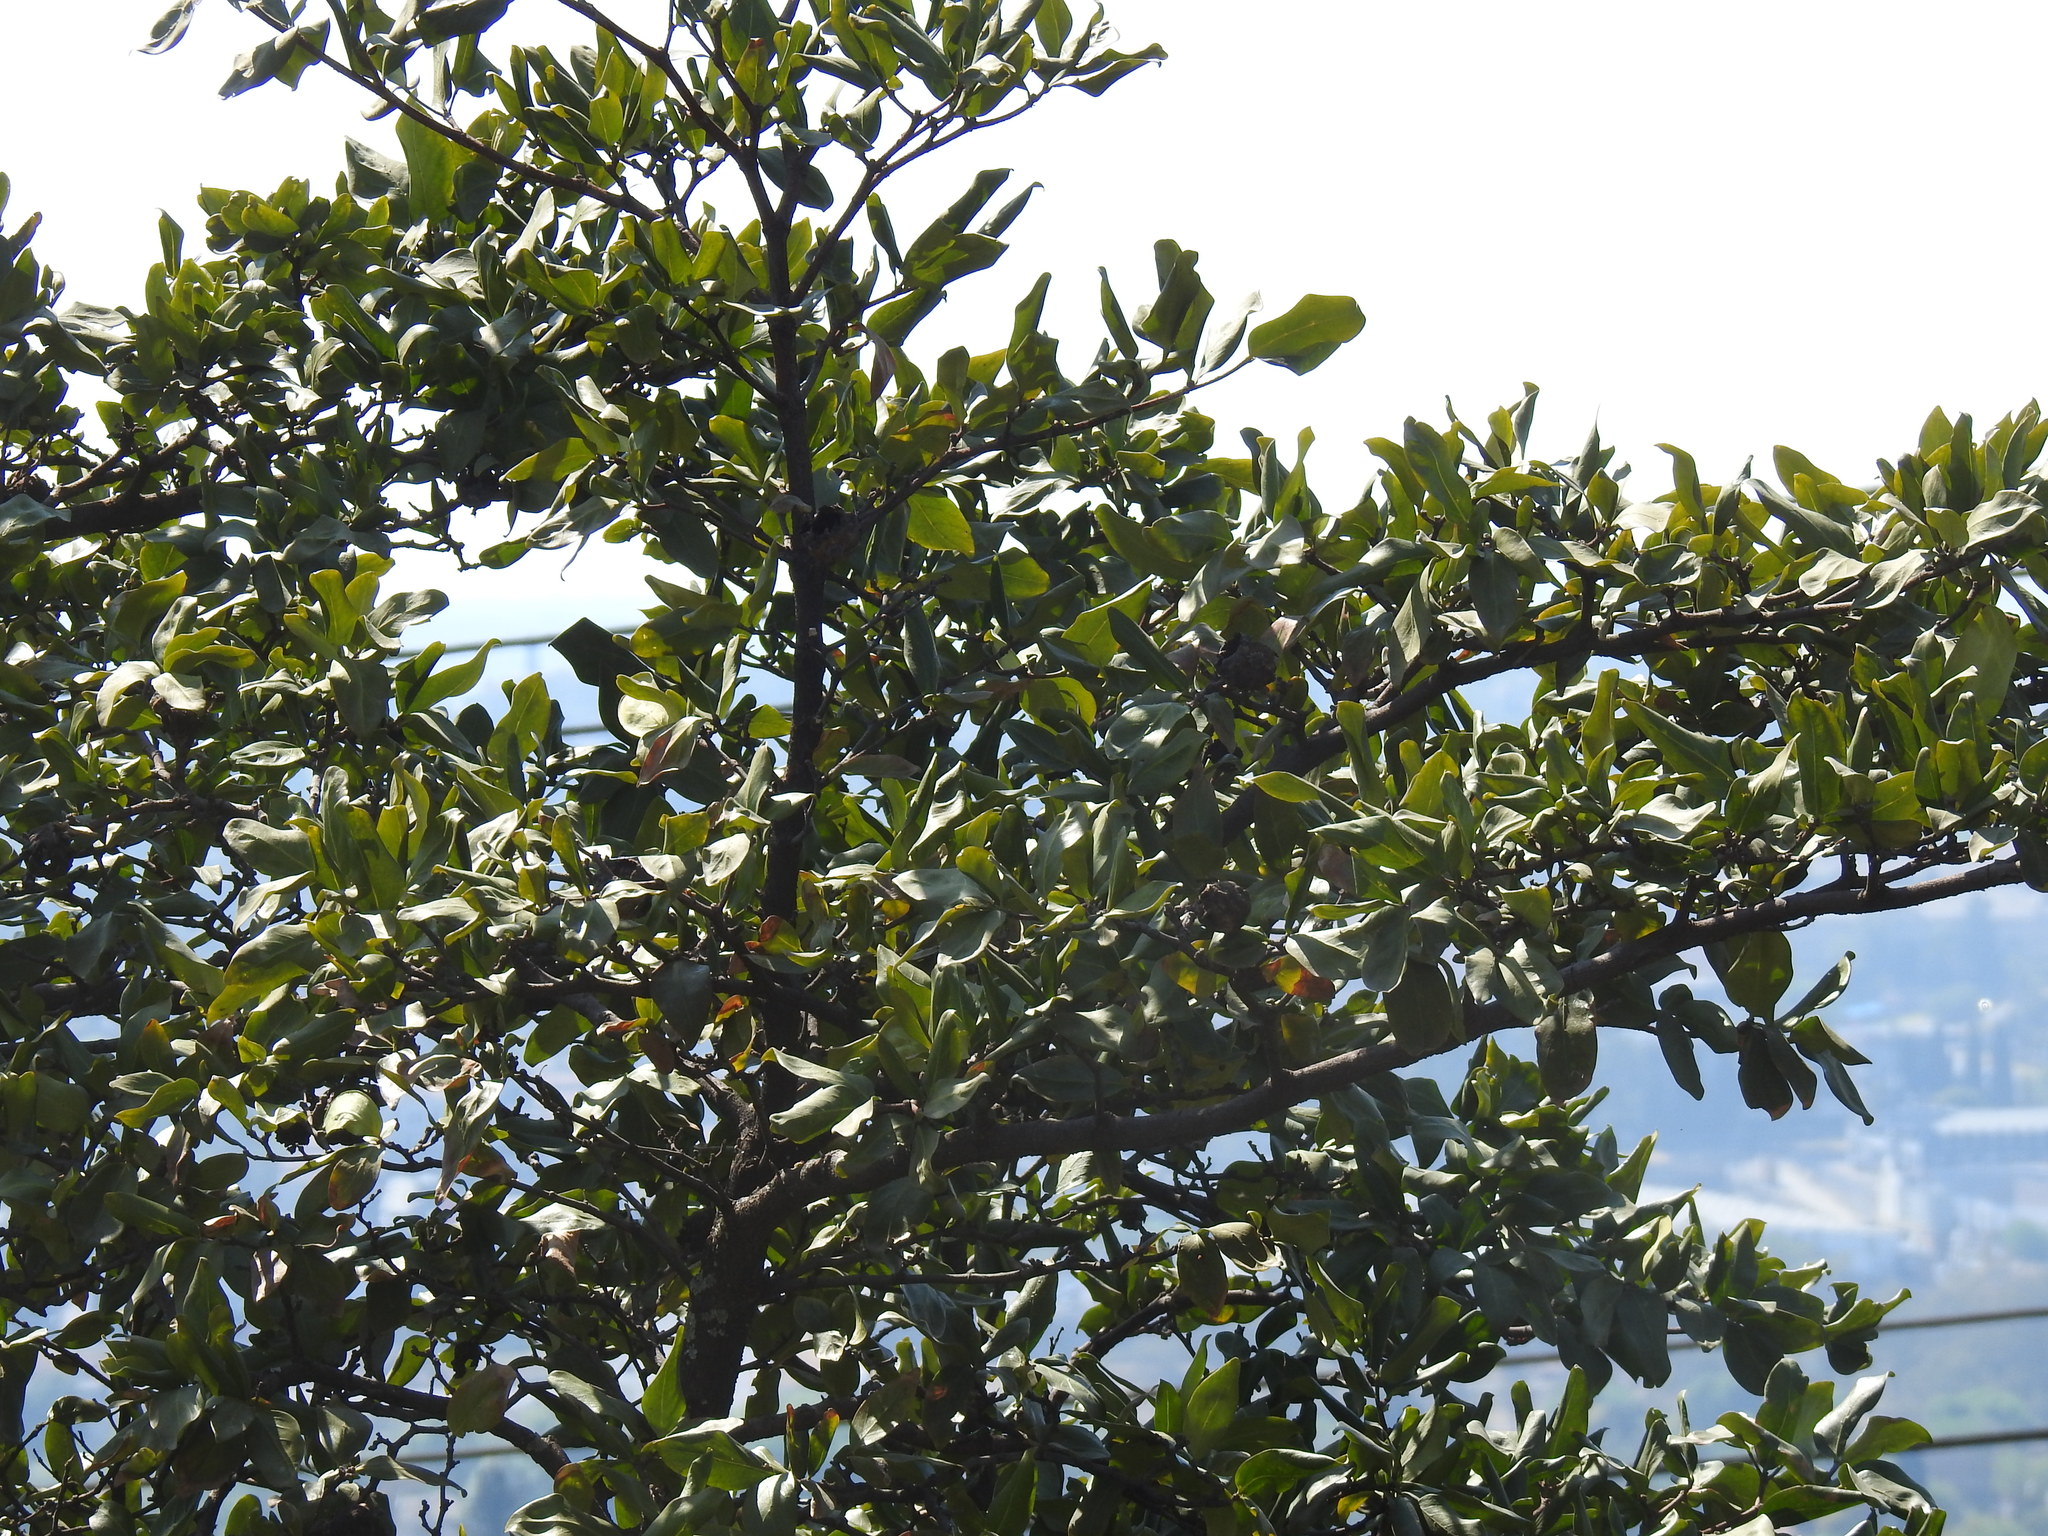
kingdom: Plantae
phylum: Tracheophyta
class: Magnoliopsida
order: Gentianales
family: Rubiaceae
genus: Rothmannia
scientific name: Rothmannia capensis
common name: Cape gardenia
